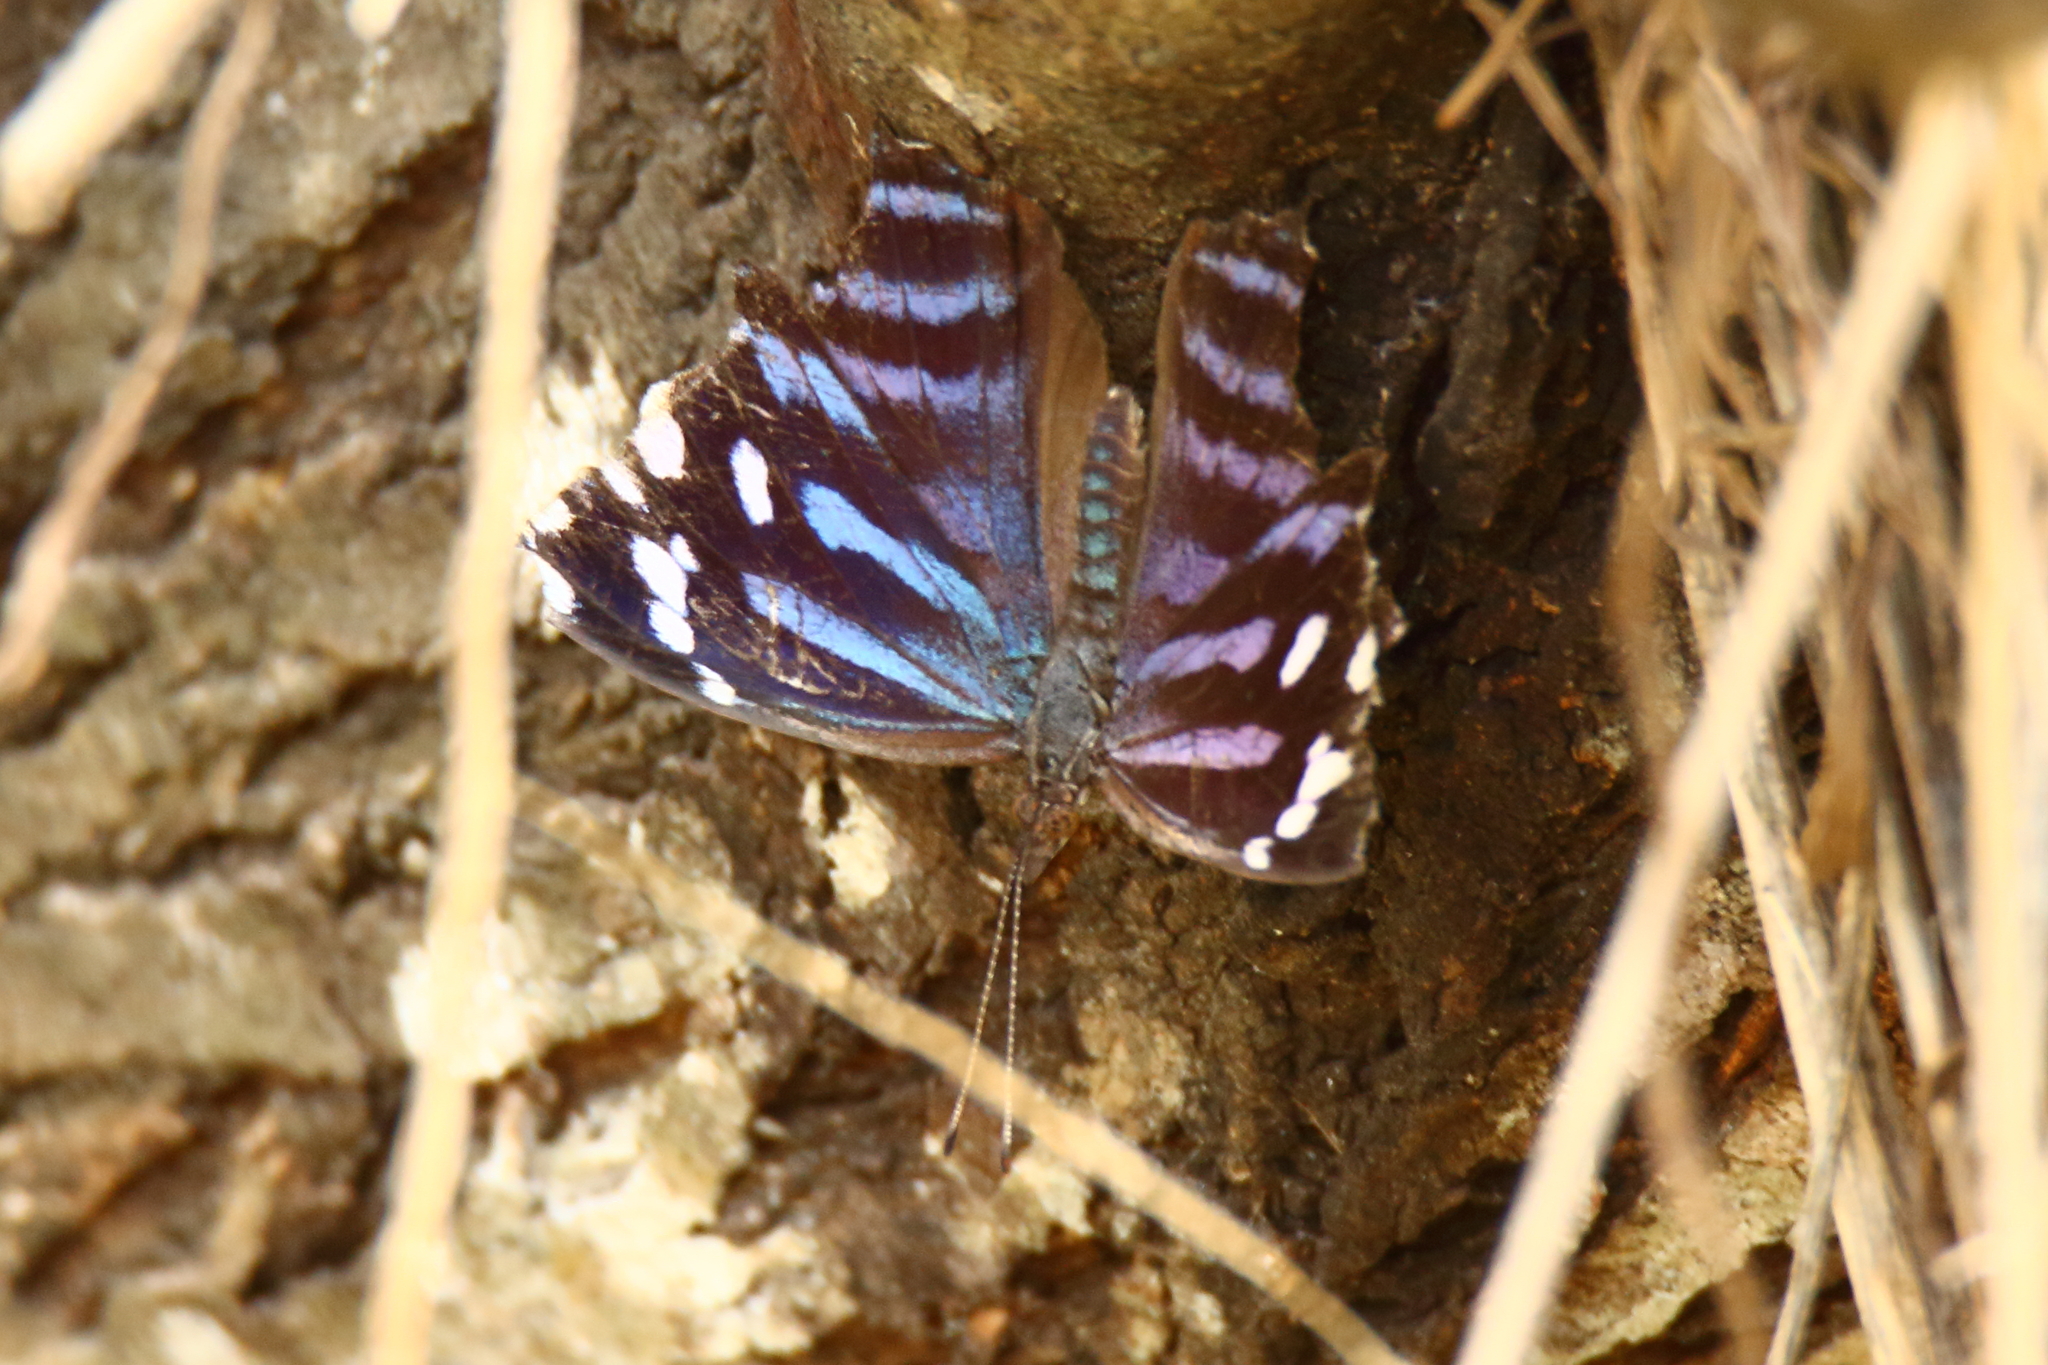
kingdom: Animalia
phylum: Arthropoda
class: Insecta
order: Lepidoptera
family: Nymphalidae
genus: Myscelia
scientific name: Myscelia ethusa
